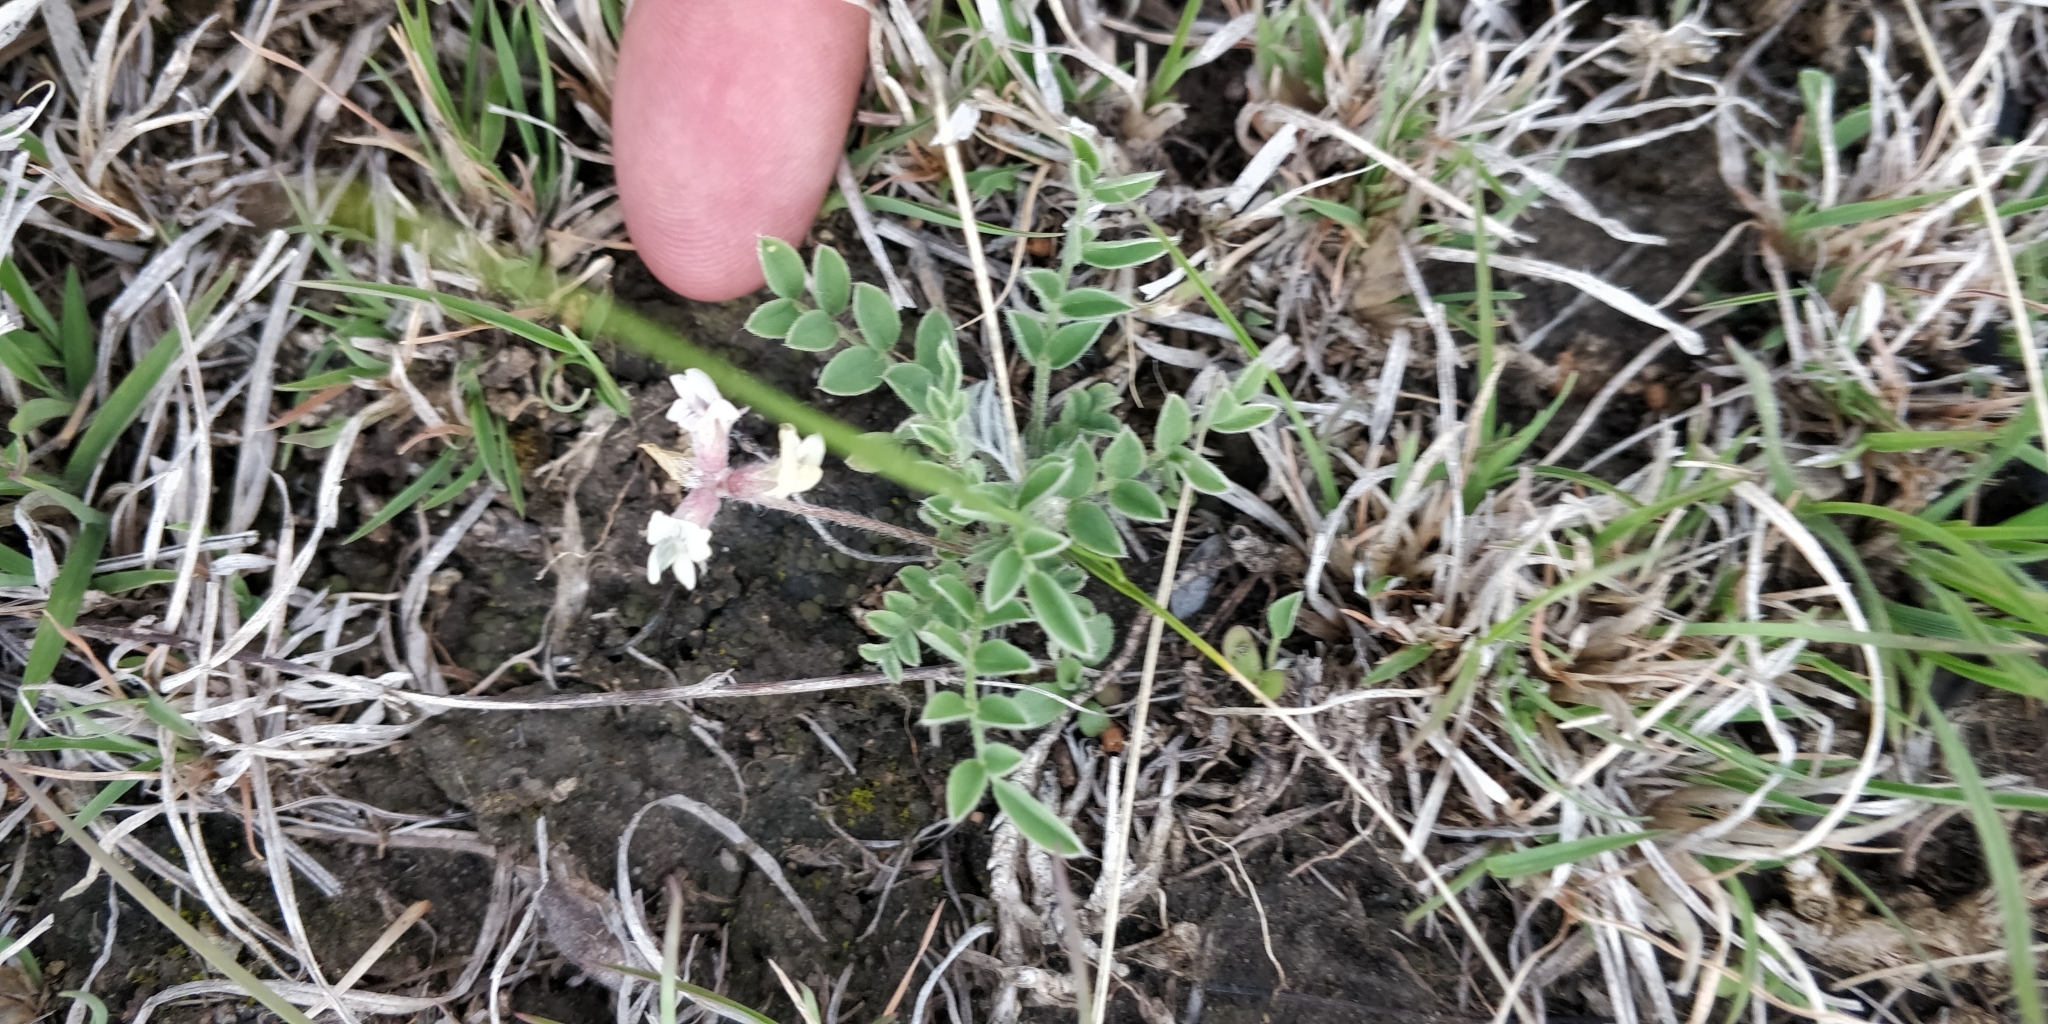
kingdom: Plantae
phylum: Tracheophyta
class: Magnoliopsida
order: Fabales
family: Fabaceae
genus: Astragalus
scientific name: Astragalus lotiflorus
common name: Lotus milk-vetch
